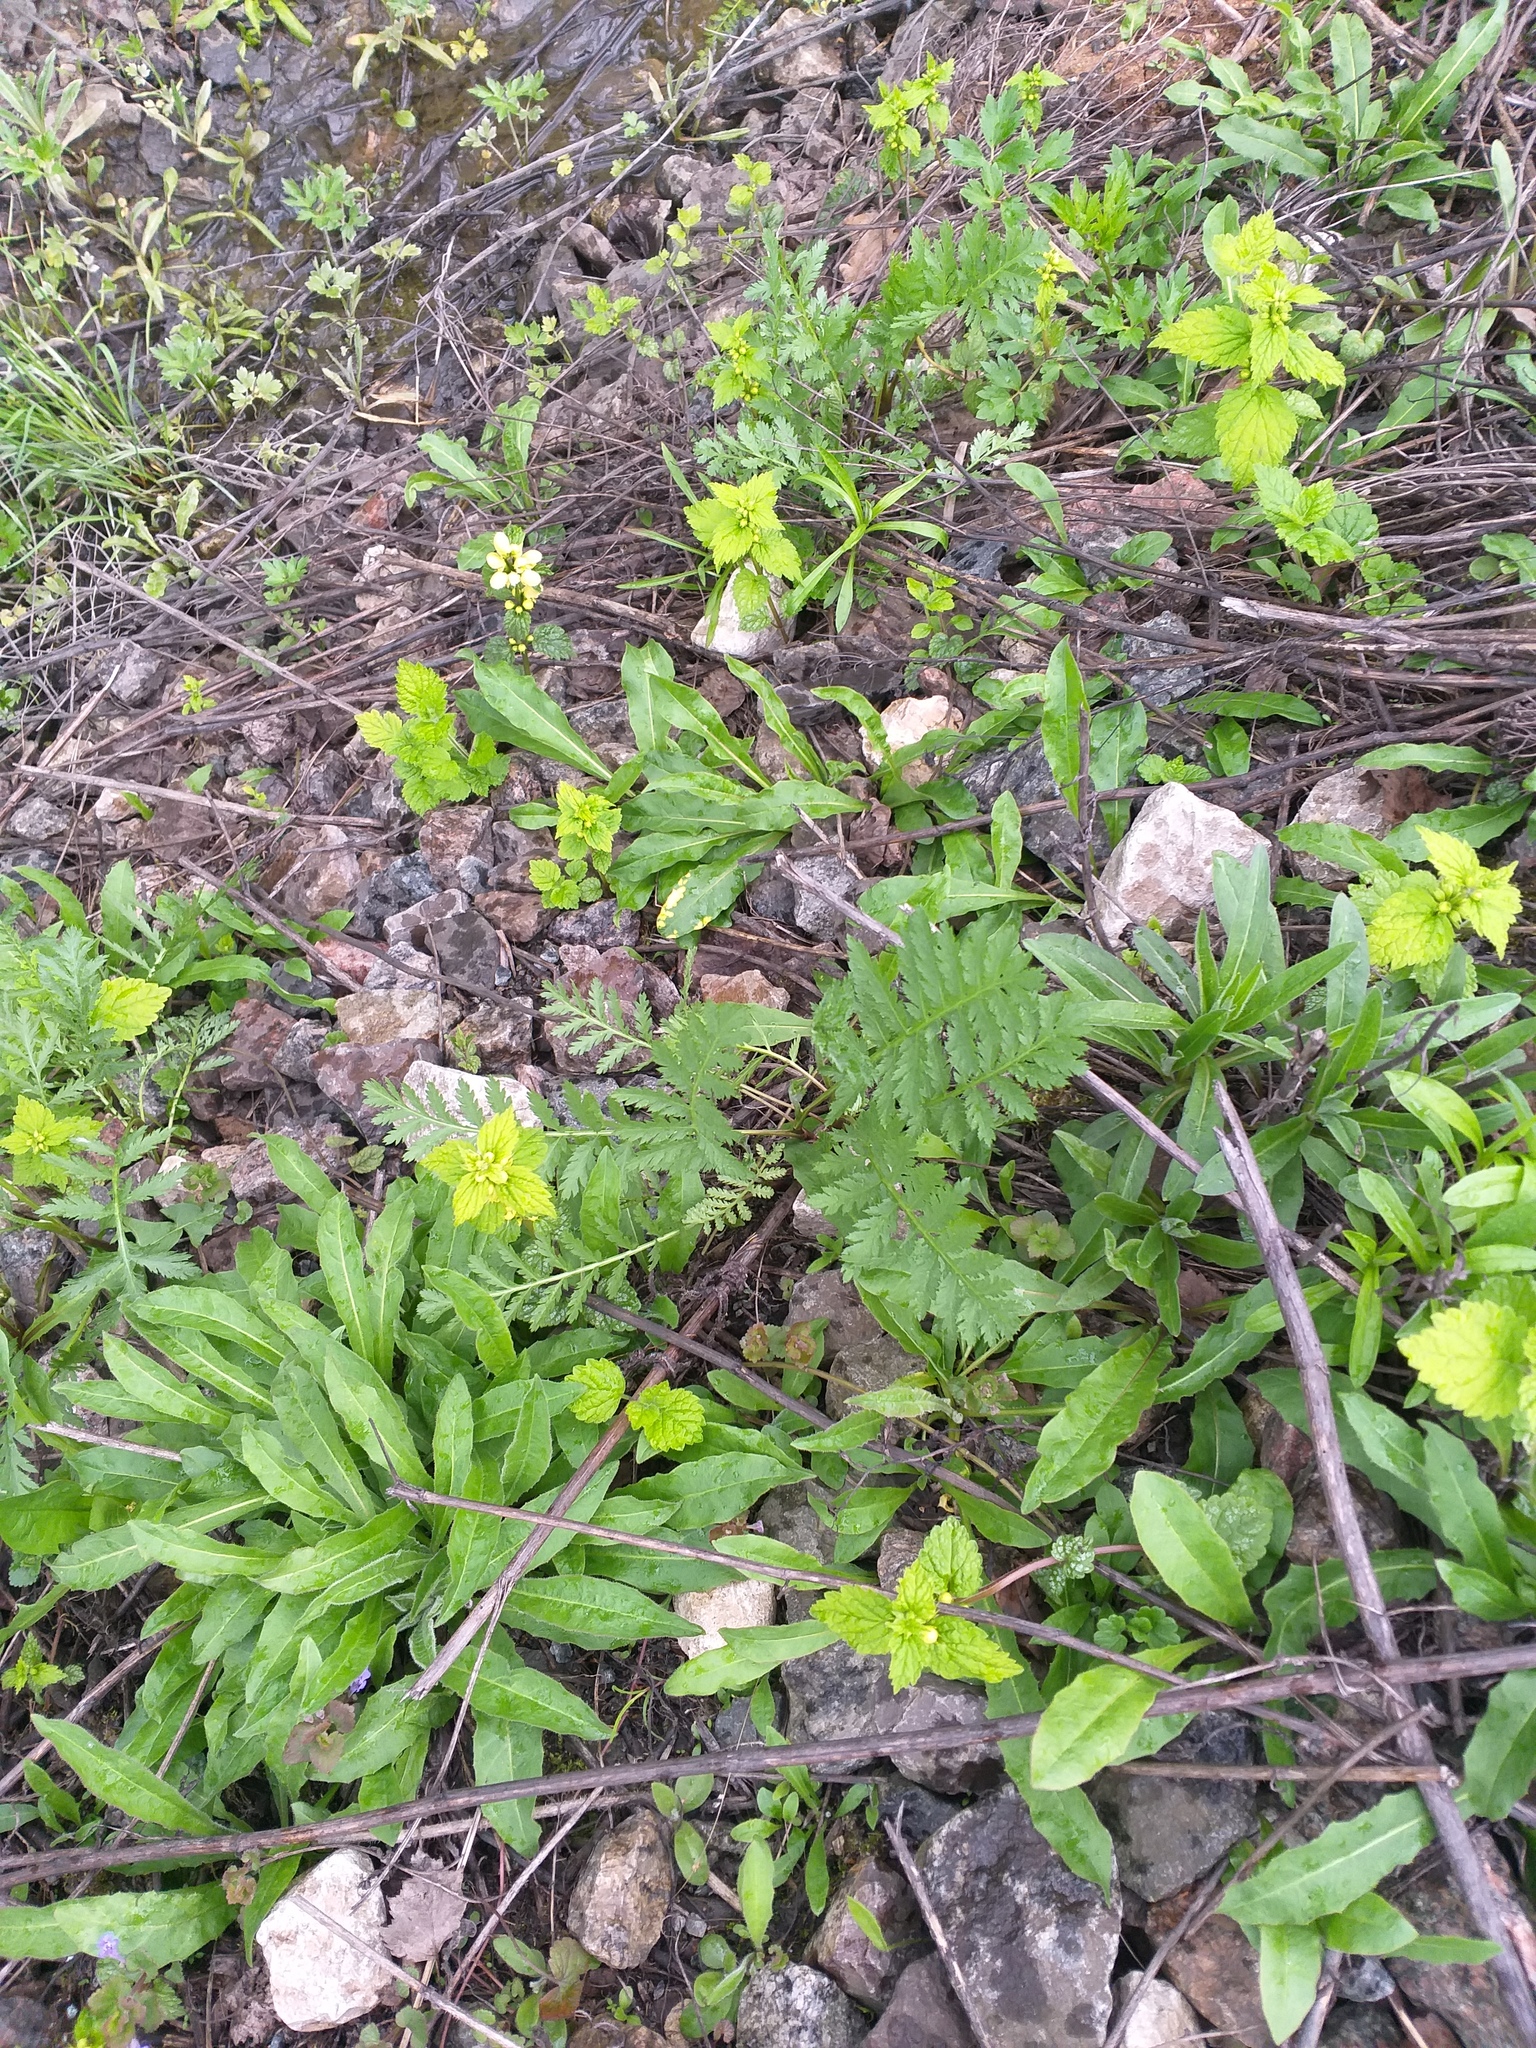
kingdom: Plantae
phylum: Tracheophyta
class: Magnoliopsida
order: Lamiales
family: Lamiaceae
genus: Lamium
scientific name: Lamium galeobdolon
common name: Yellow archangel
